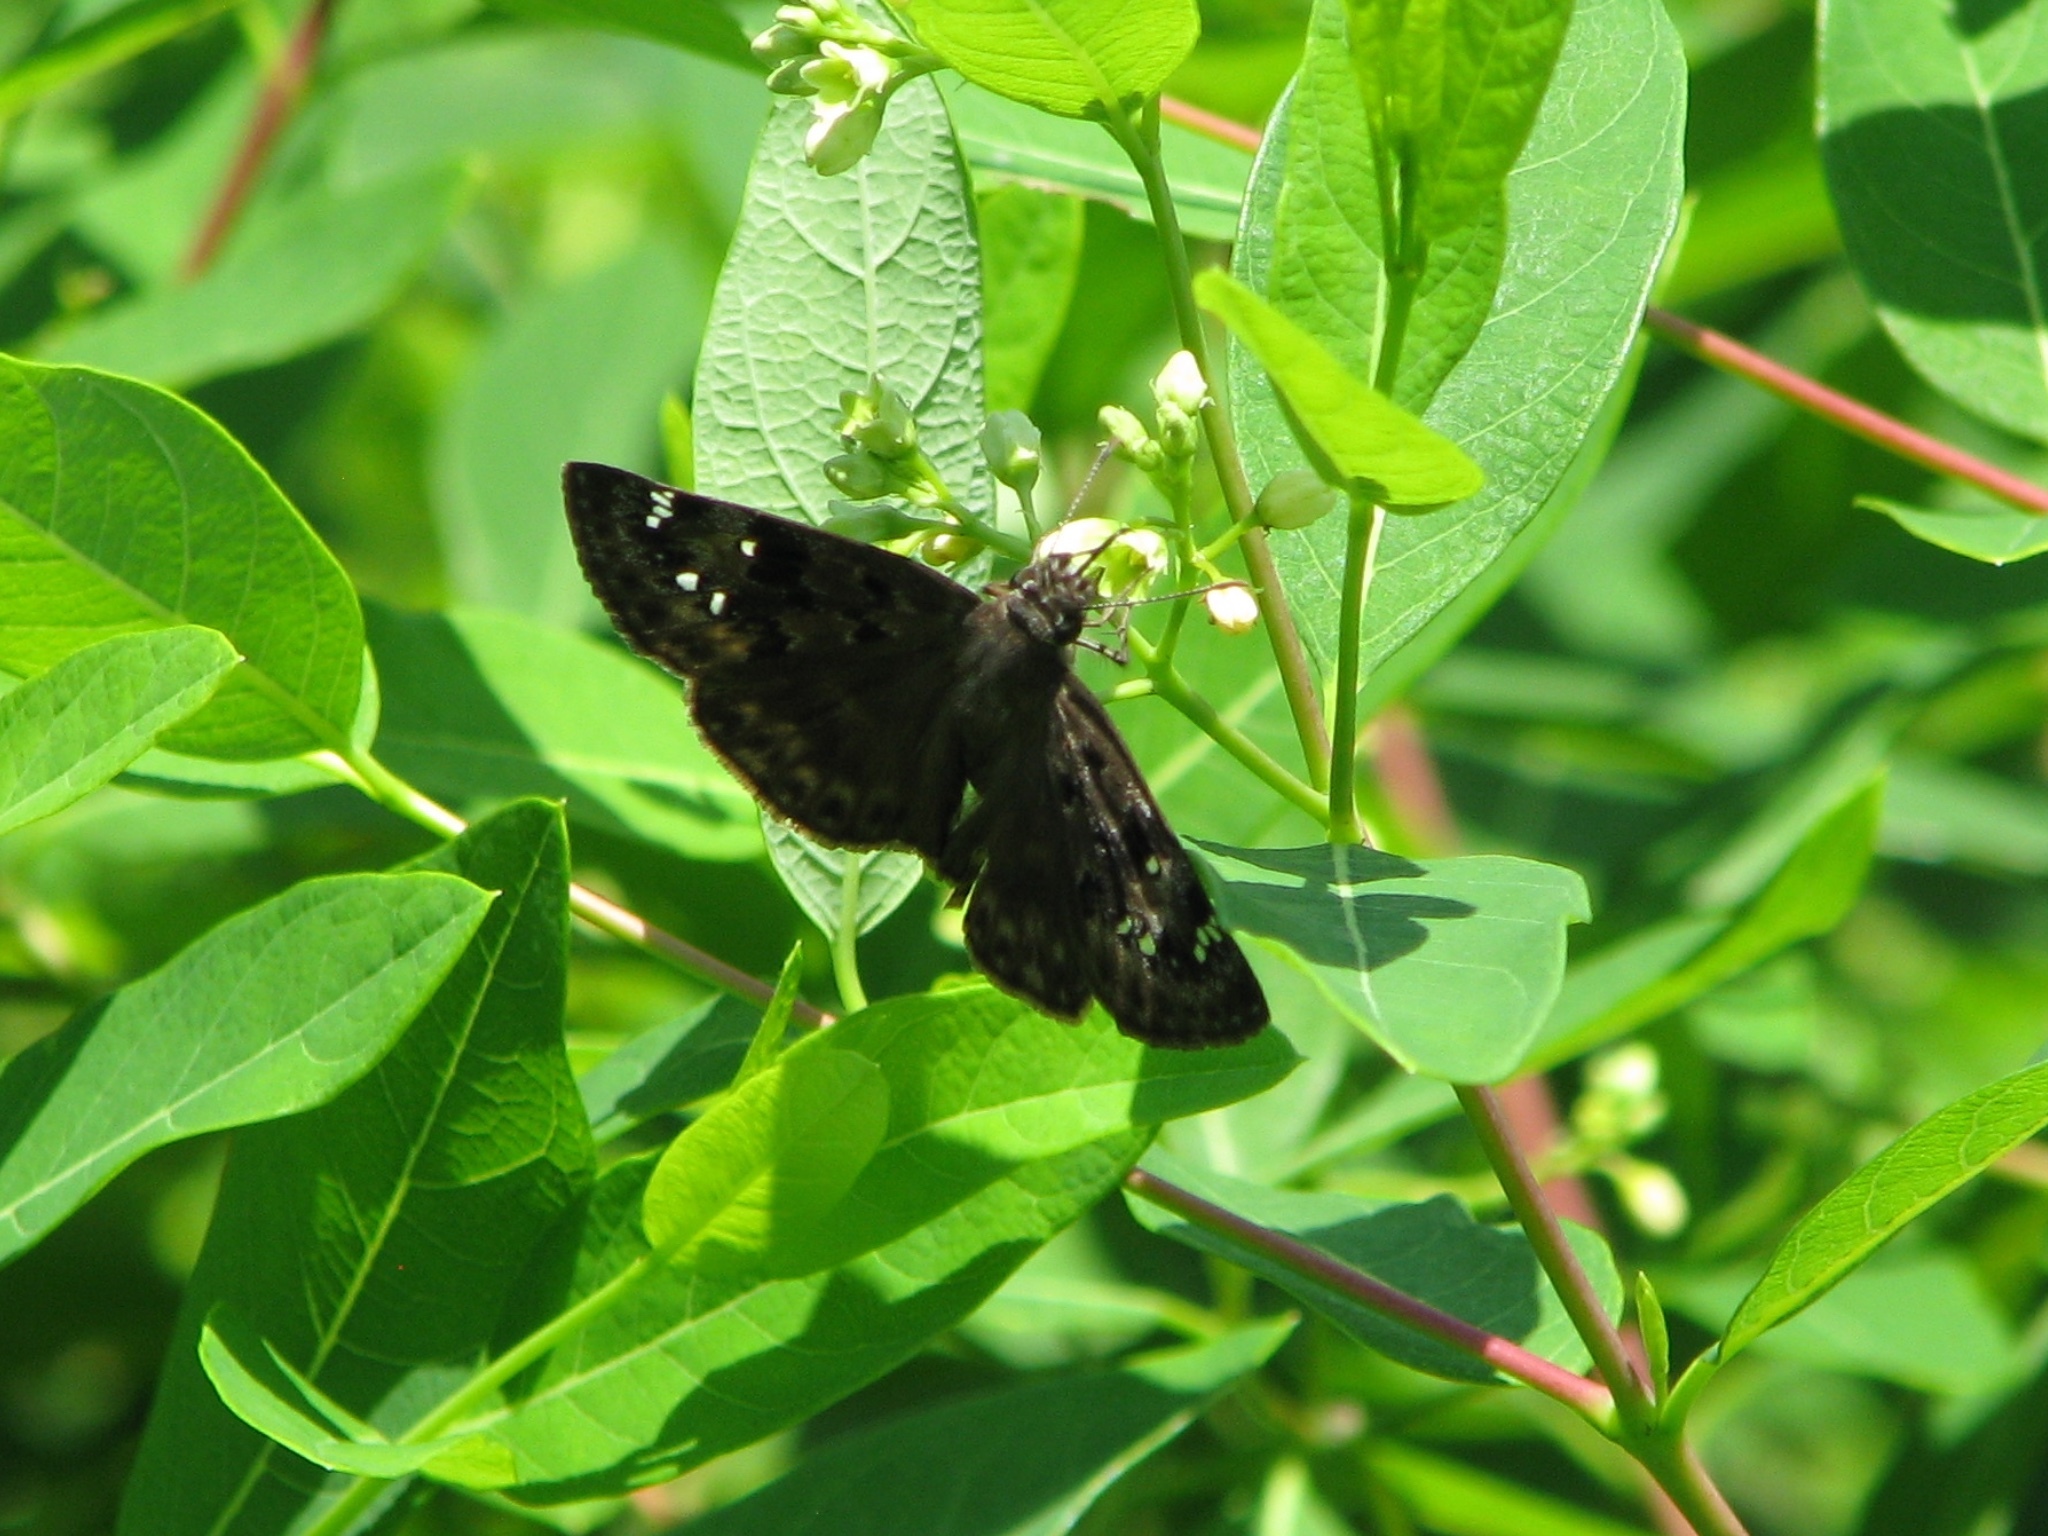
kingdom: Animalia
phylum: Arthropoda
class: Insecta
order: Lepidoptera
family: Hesperiidae
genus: Erynnis
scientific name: Erynnis horatius
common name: Horace's duskywing
